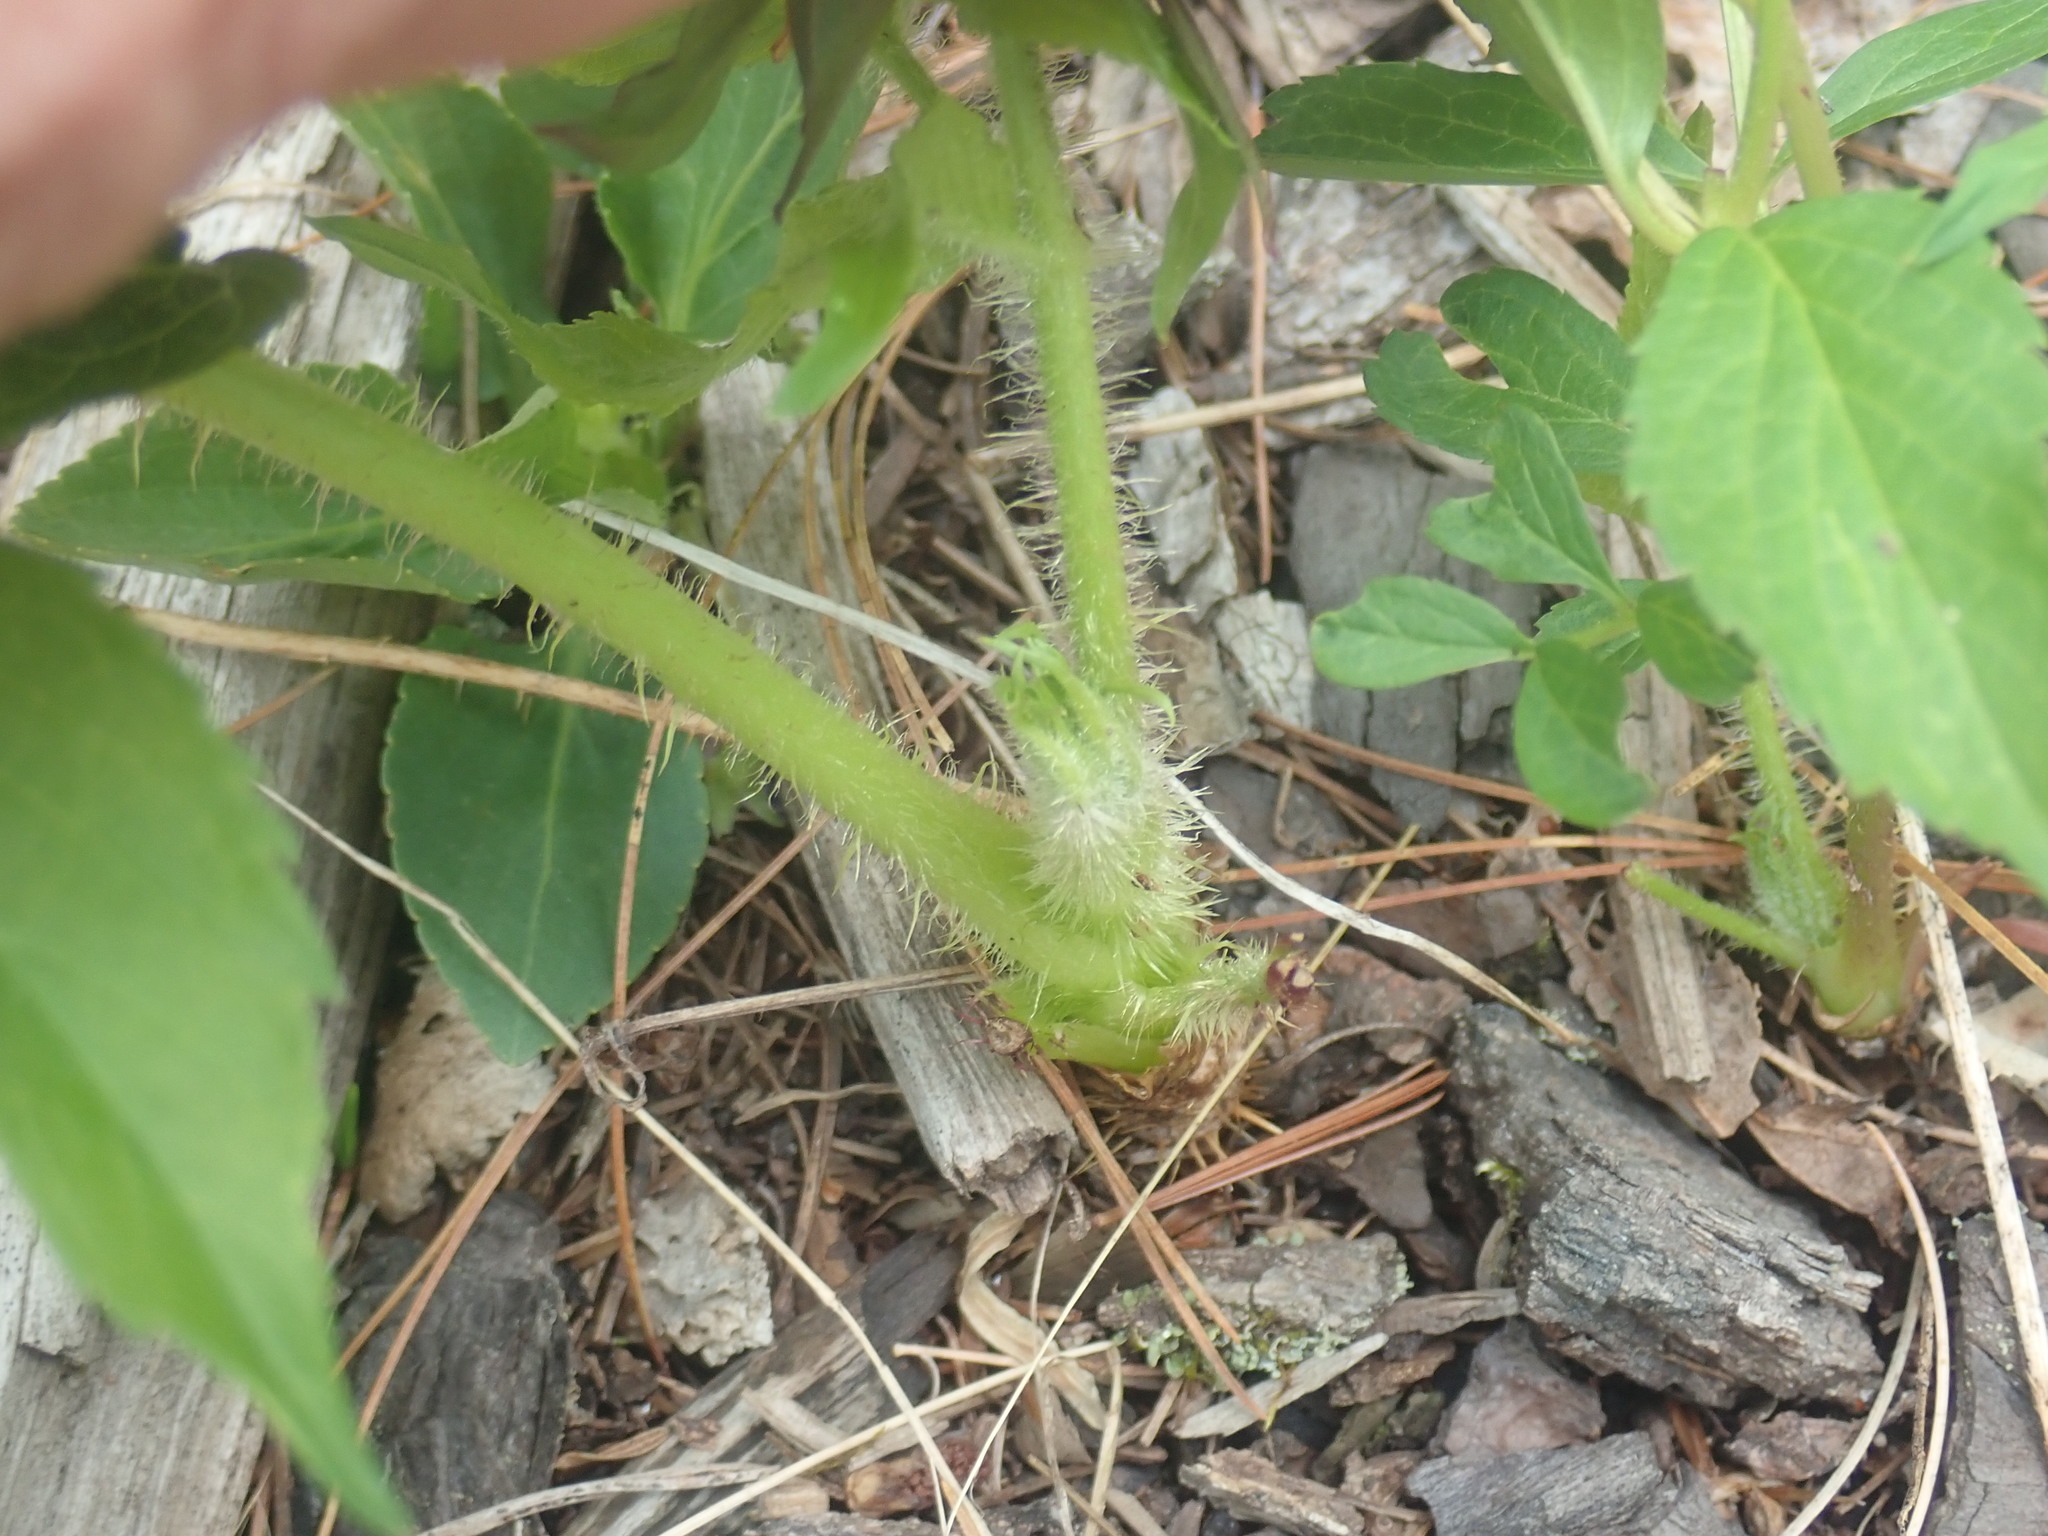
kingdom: Plantae
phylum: Tracheophyta
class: Magnoliopsida
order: Apiales
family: Araliaceae
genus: Aralia
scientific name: Aralia hispida
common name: Bristly sarsaparilla
